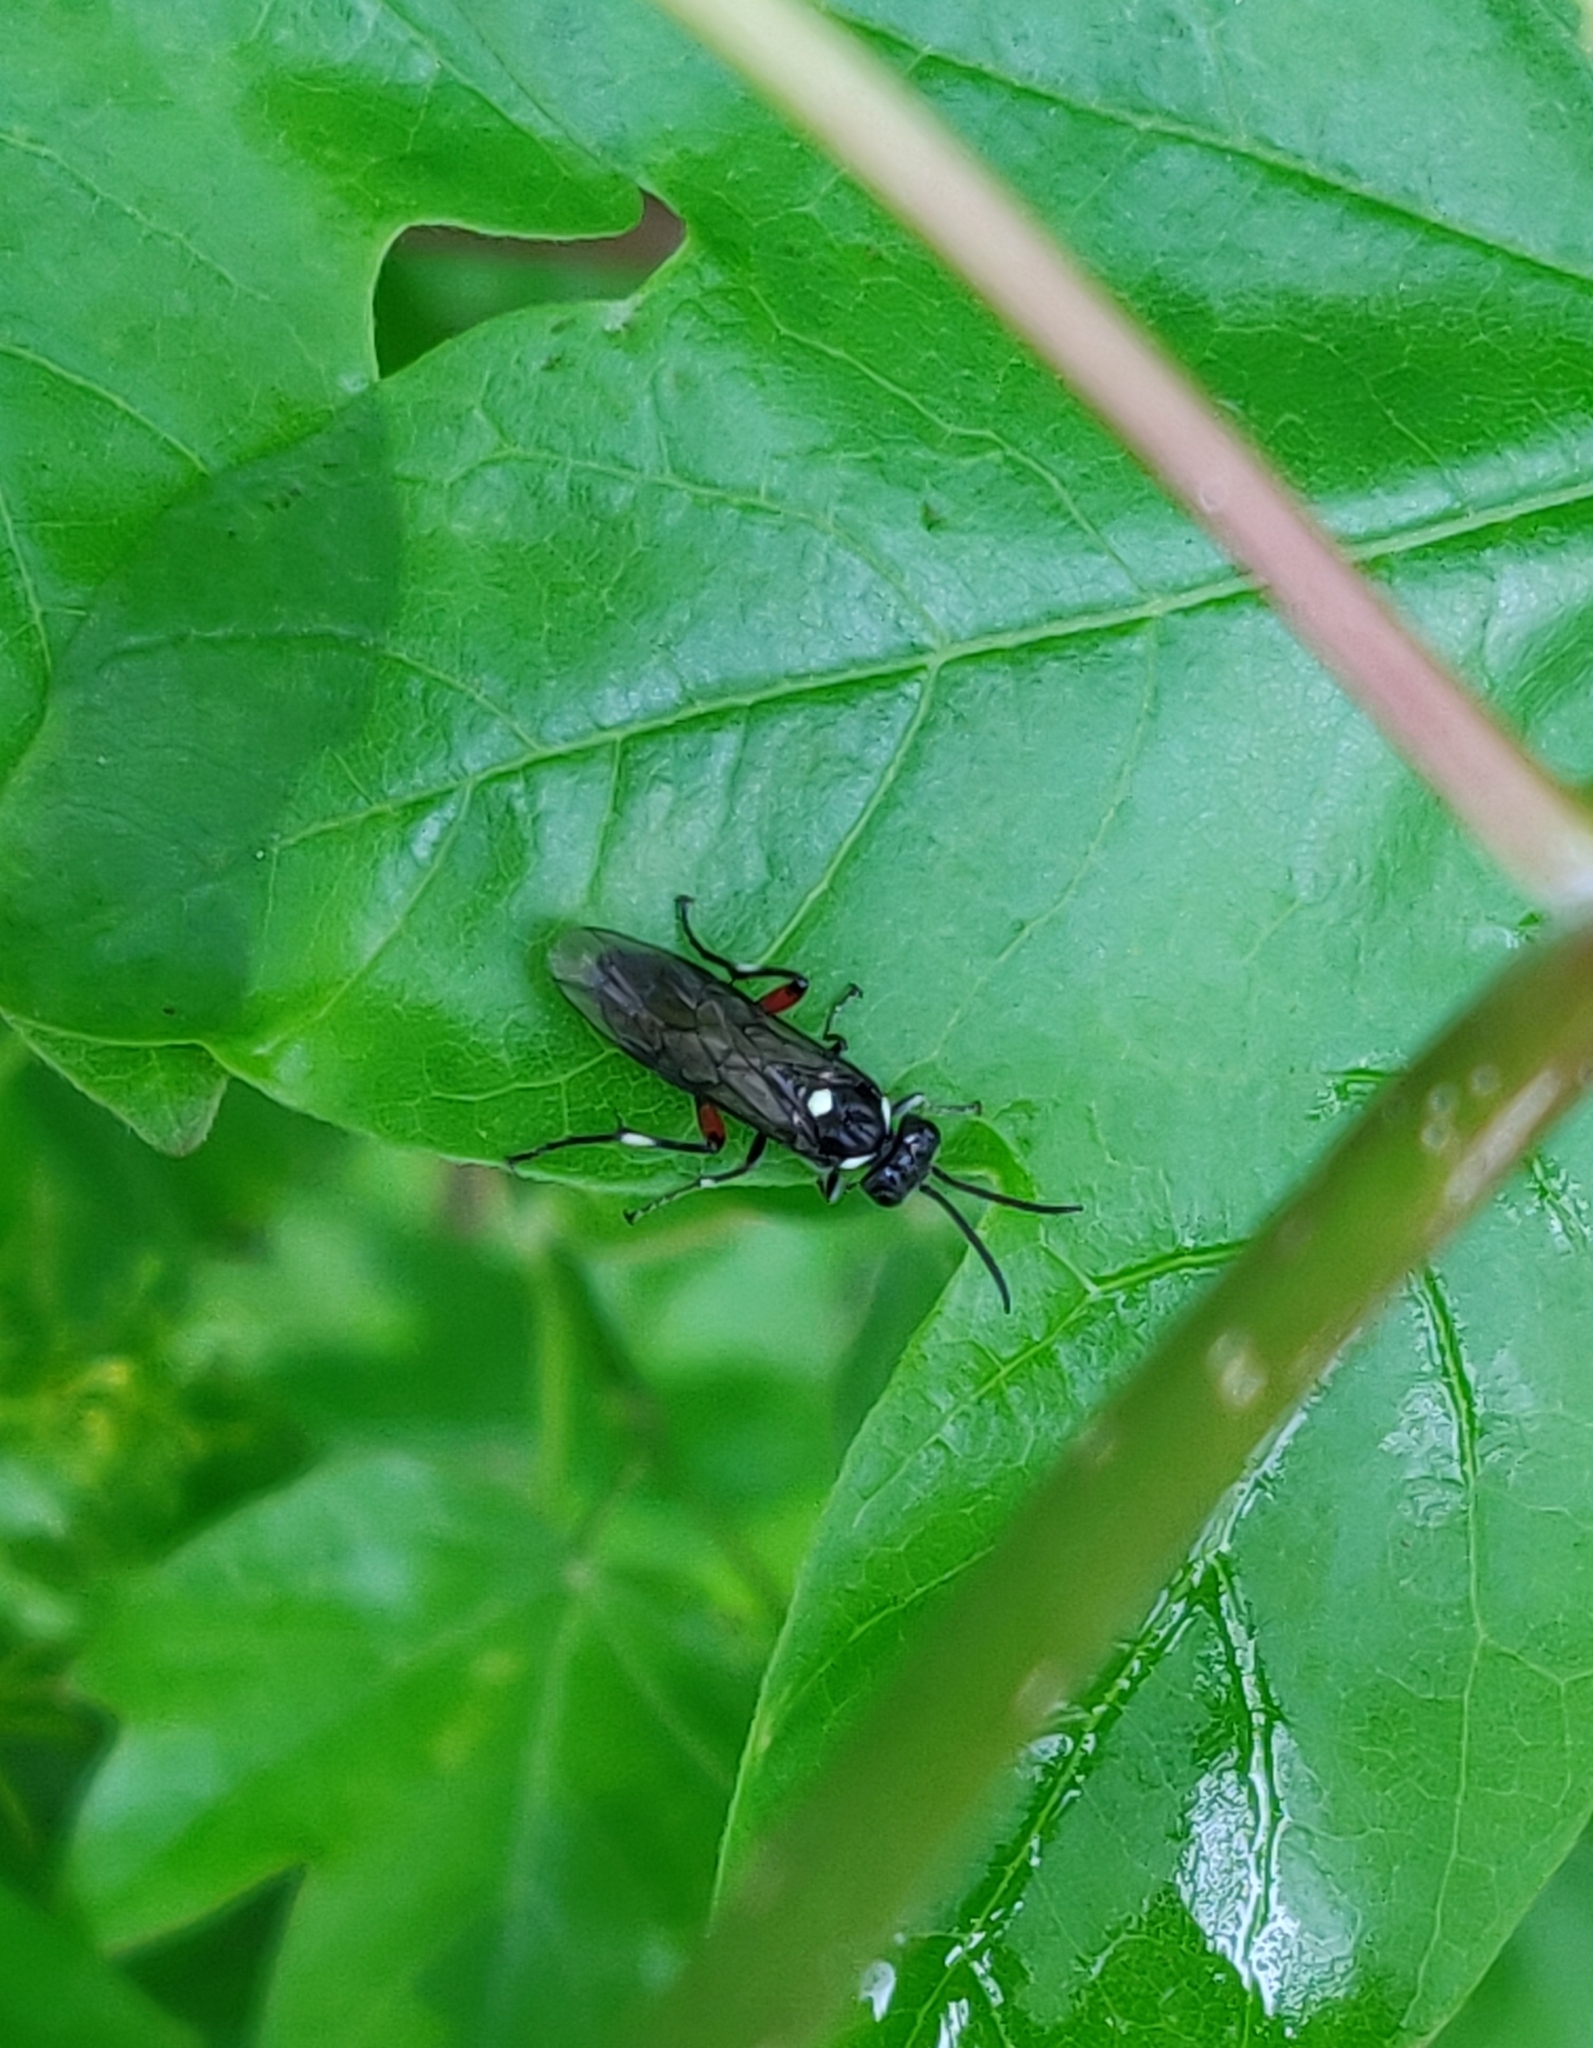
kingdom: Animalia
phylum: Arthropoda
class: Insecta
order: Hymenoptera
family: Tenthredinidae
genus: Macrophya
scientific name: Macrophya punctumalbum
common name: Sawfly
